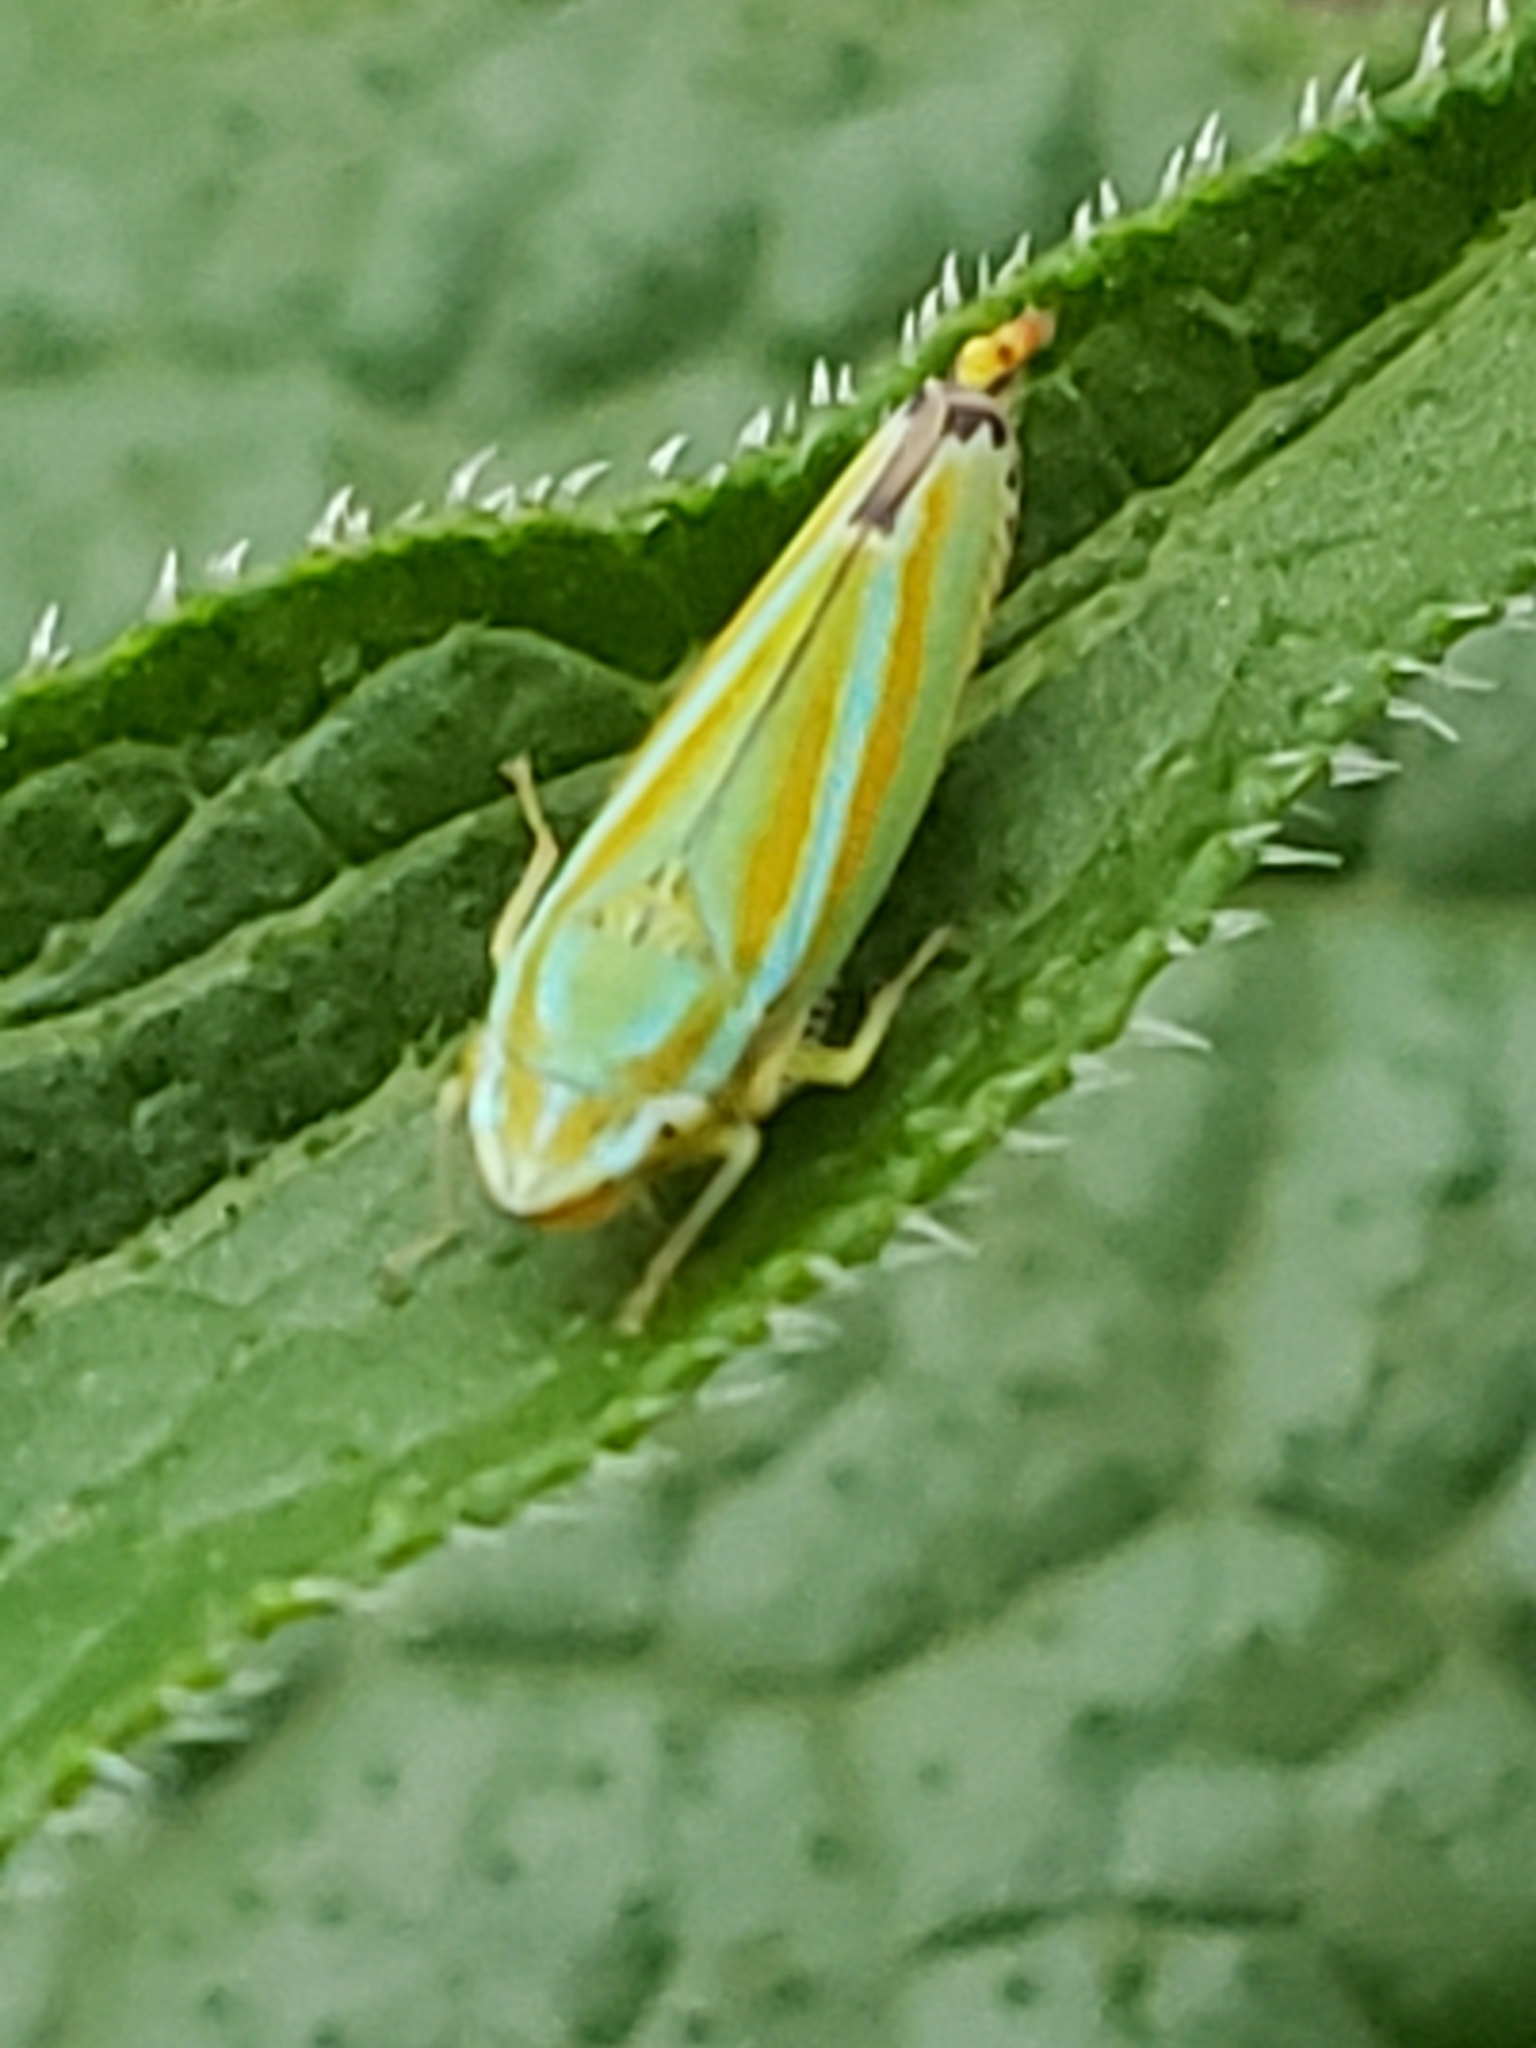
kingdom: Animalia
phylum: Arthropoda
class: Insecta
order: Hemiptera
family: Cicadellidae
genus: Graphocephala
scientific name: Graphocephala versuta
